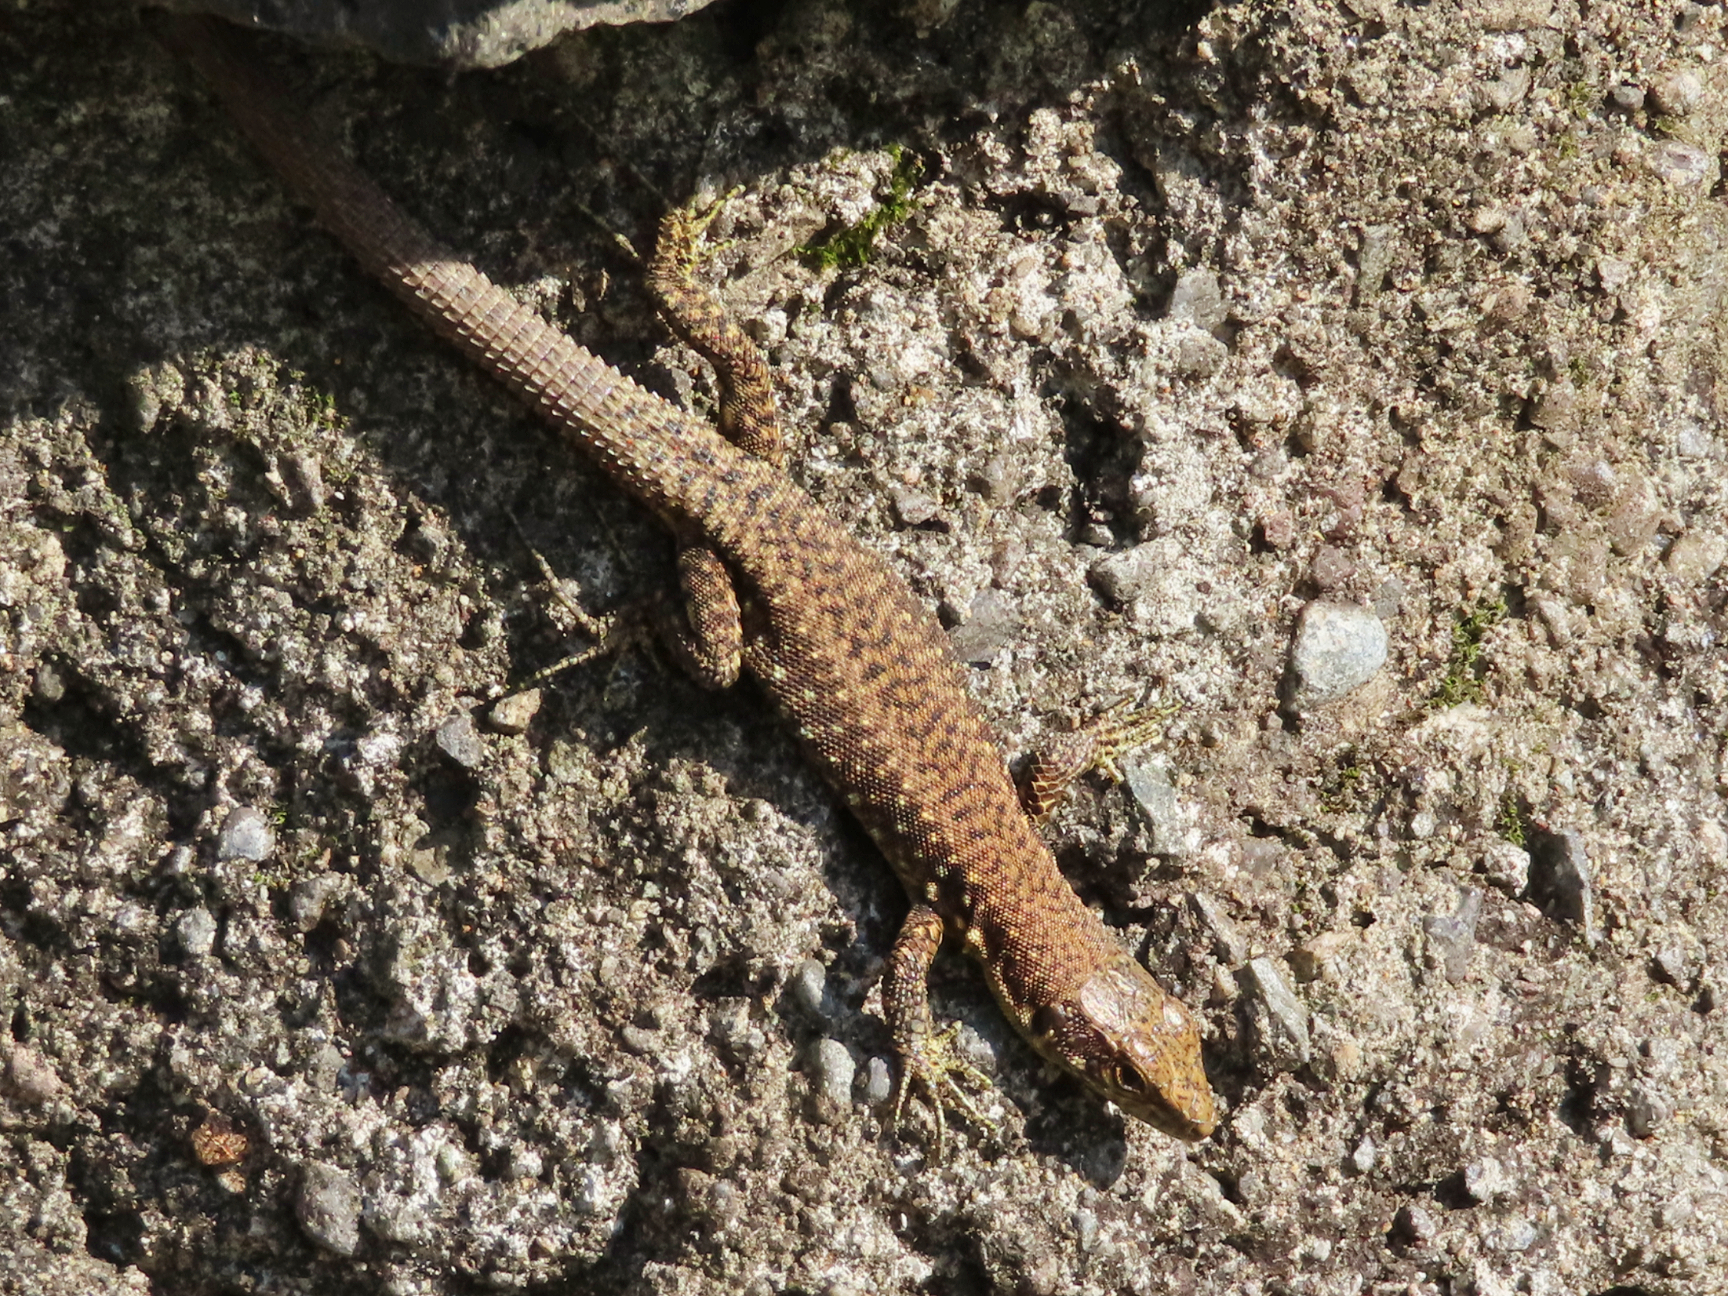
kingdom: Animalia
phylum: Chordata
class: Squamata
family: Lacertidae
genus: Darevskia
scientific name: Darevskia rudis
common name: Spiny-tailed lizard
